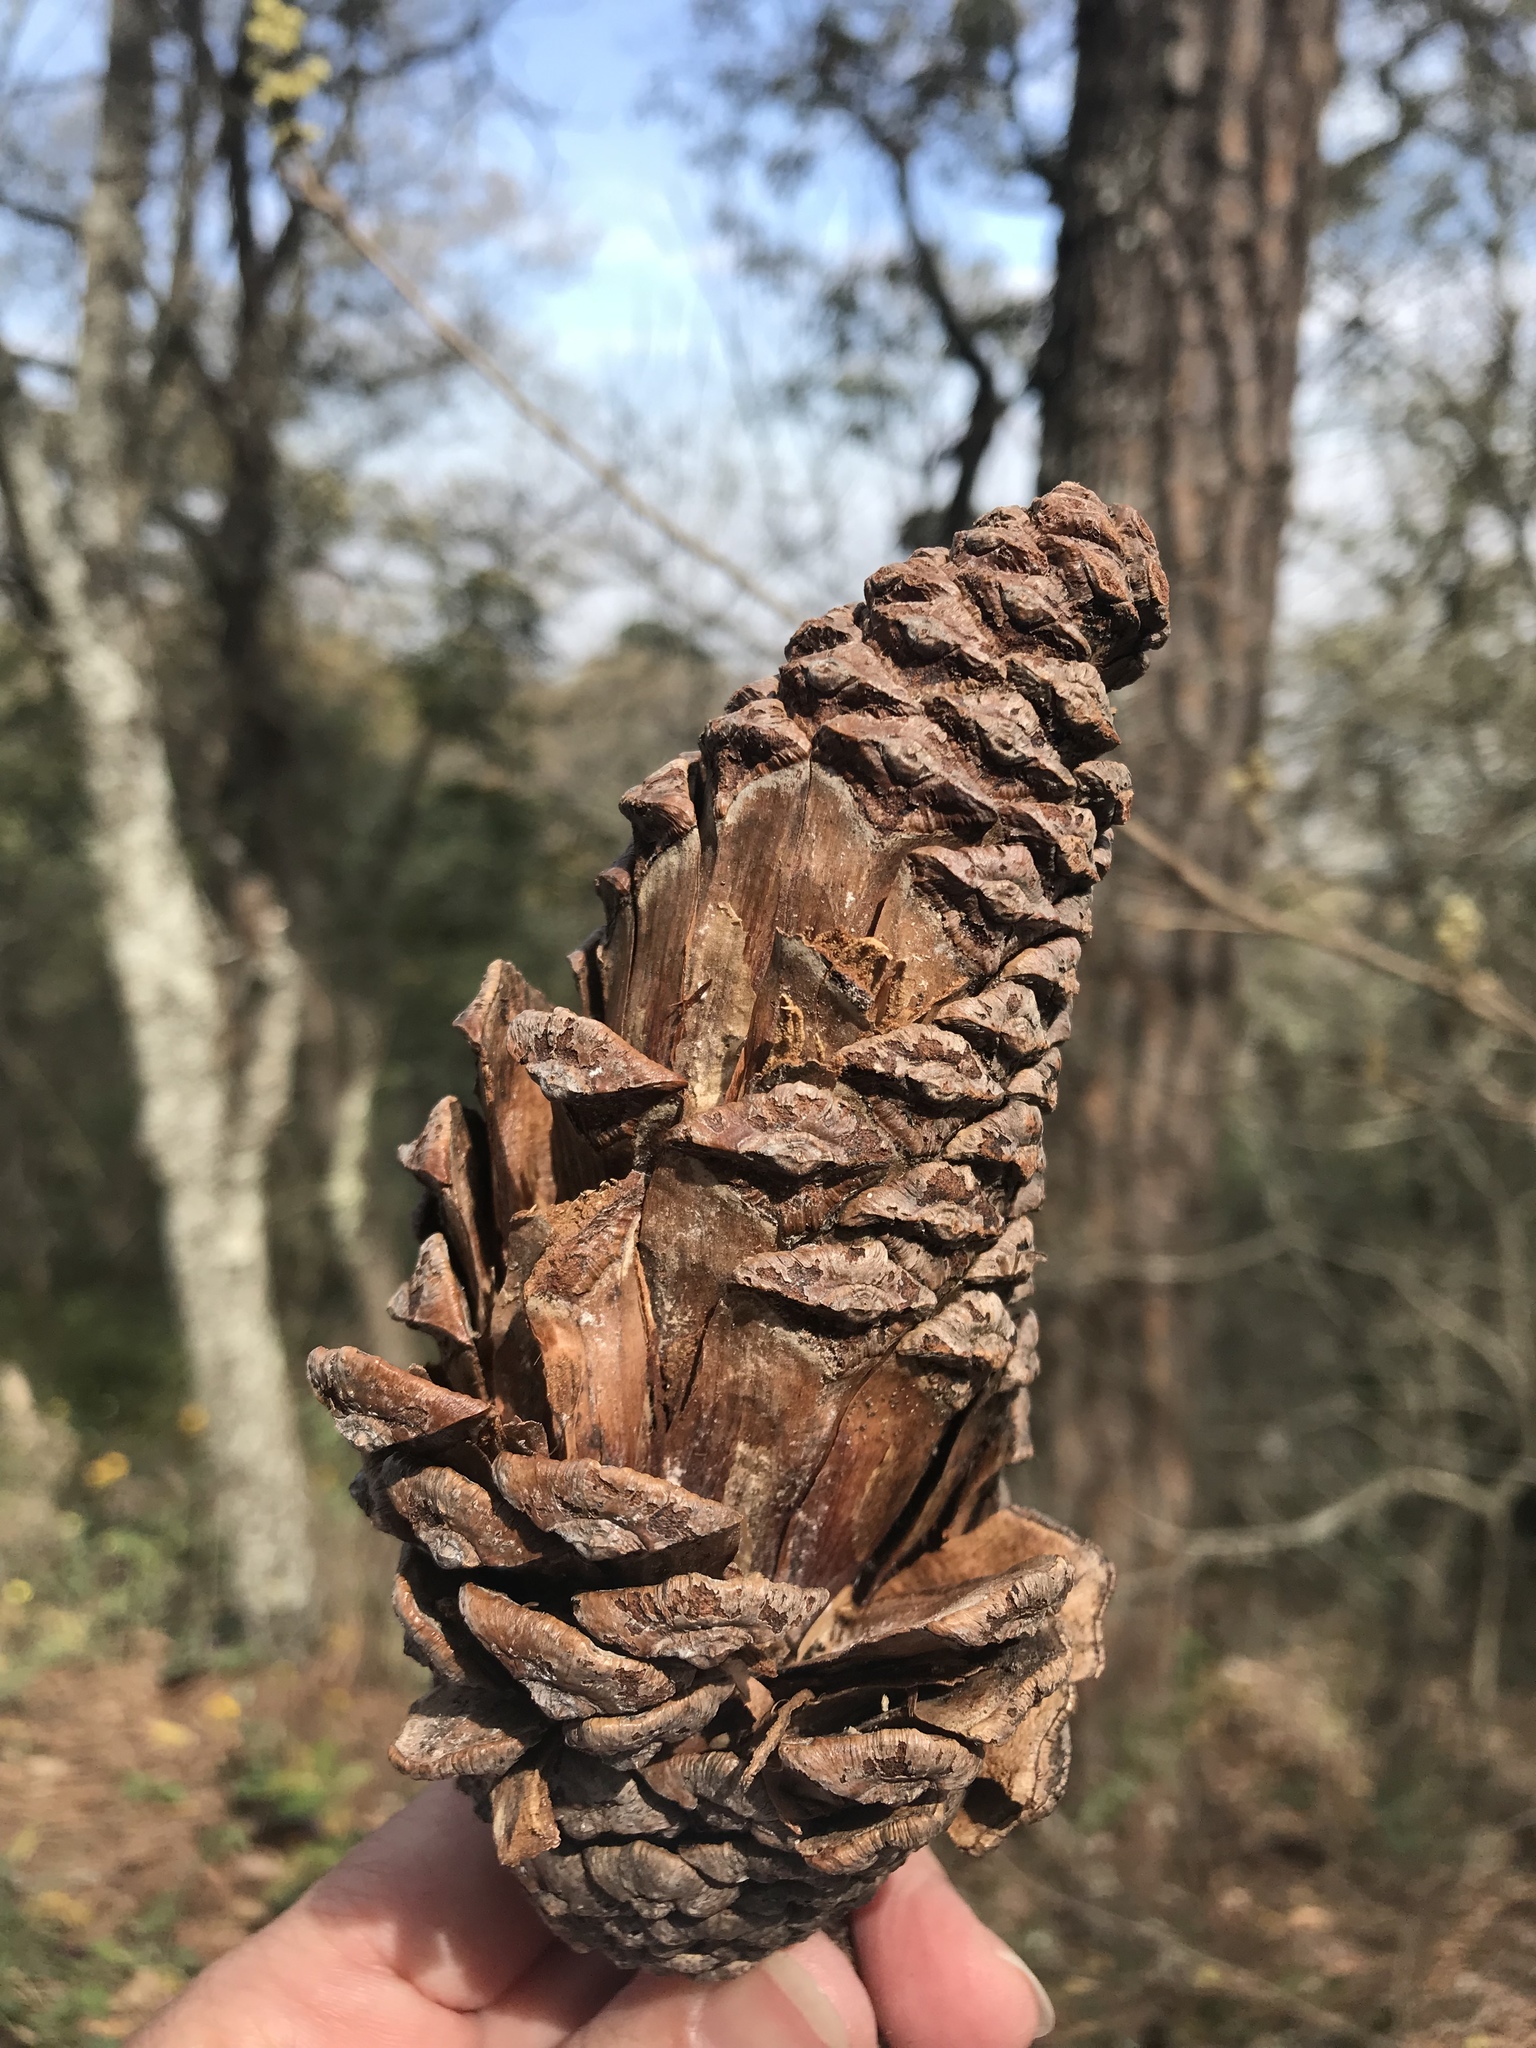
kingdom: Plantae
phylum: Tracheophyta
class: Pinopsida
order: Pinales
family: Pinaceae
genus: Pinus
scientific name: Pinus pseudostrobus
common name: False weymouth pine
